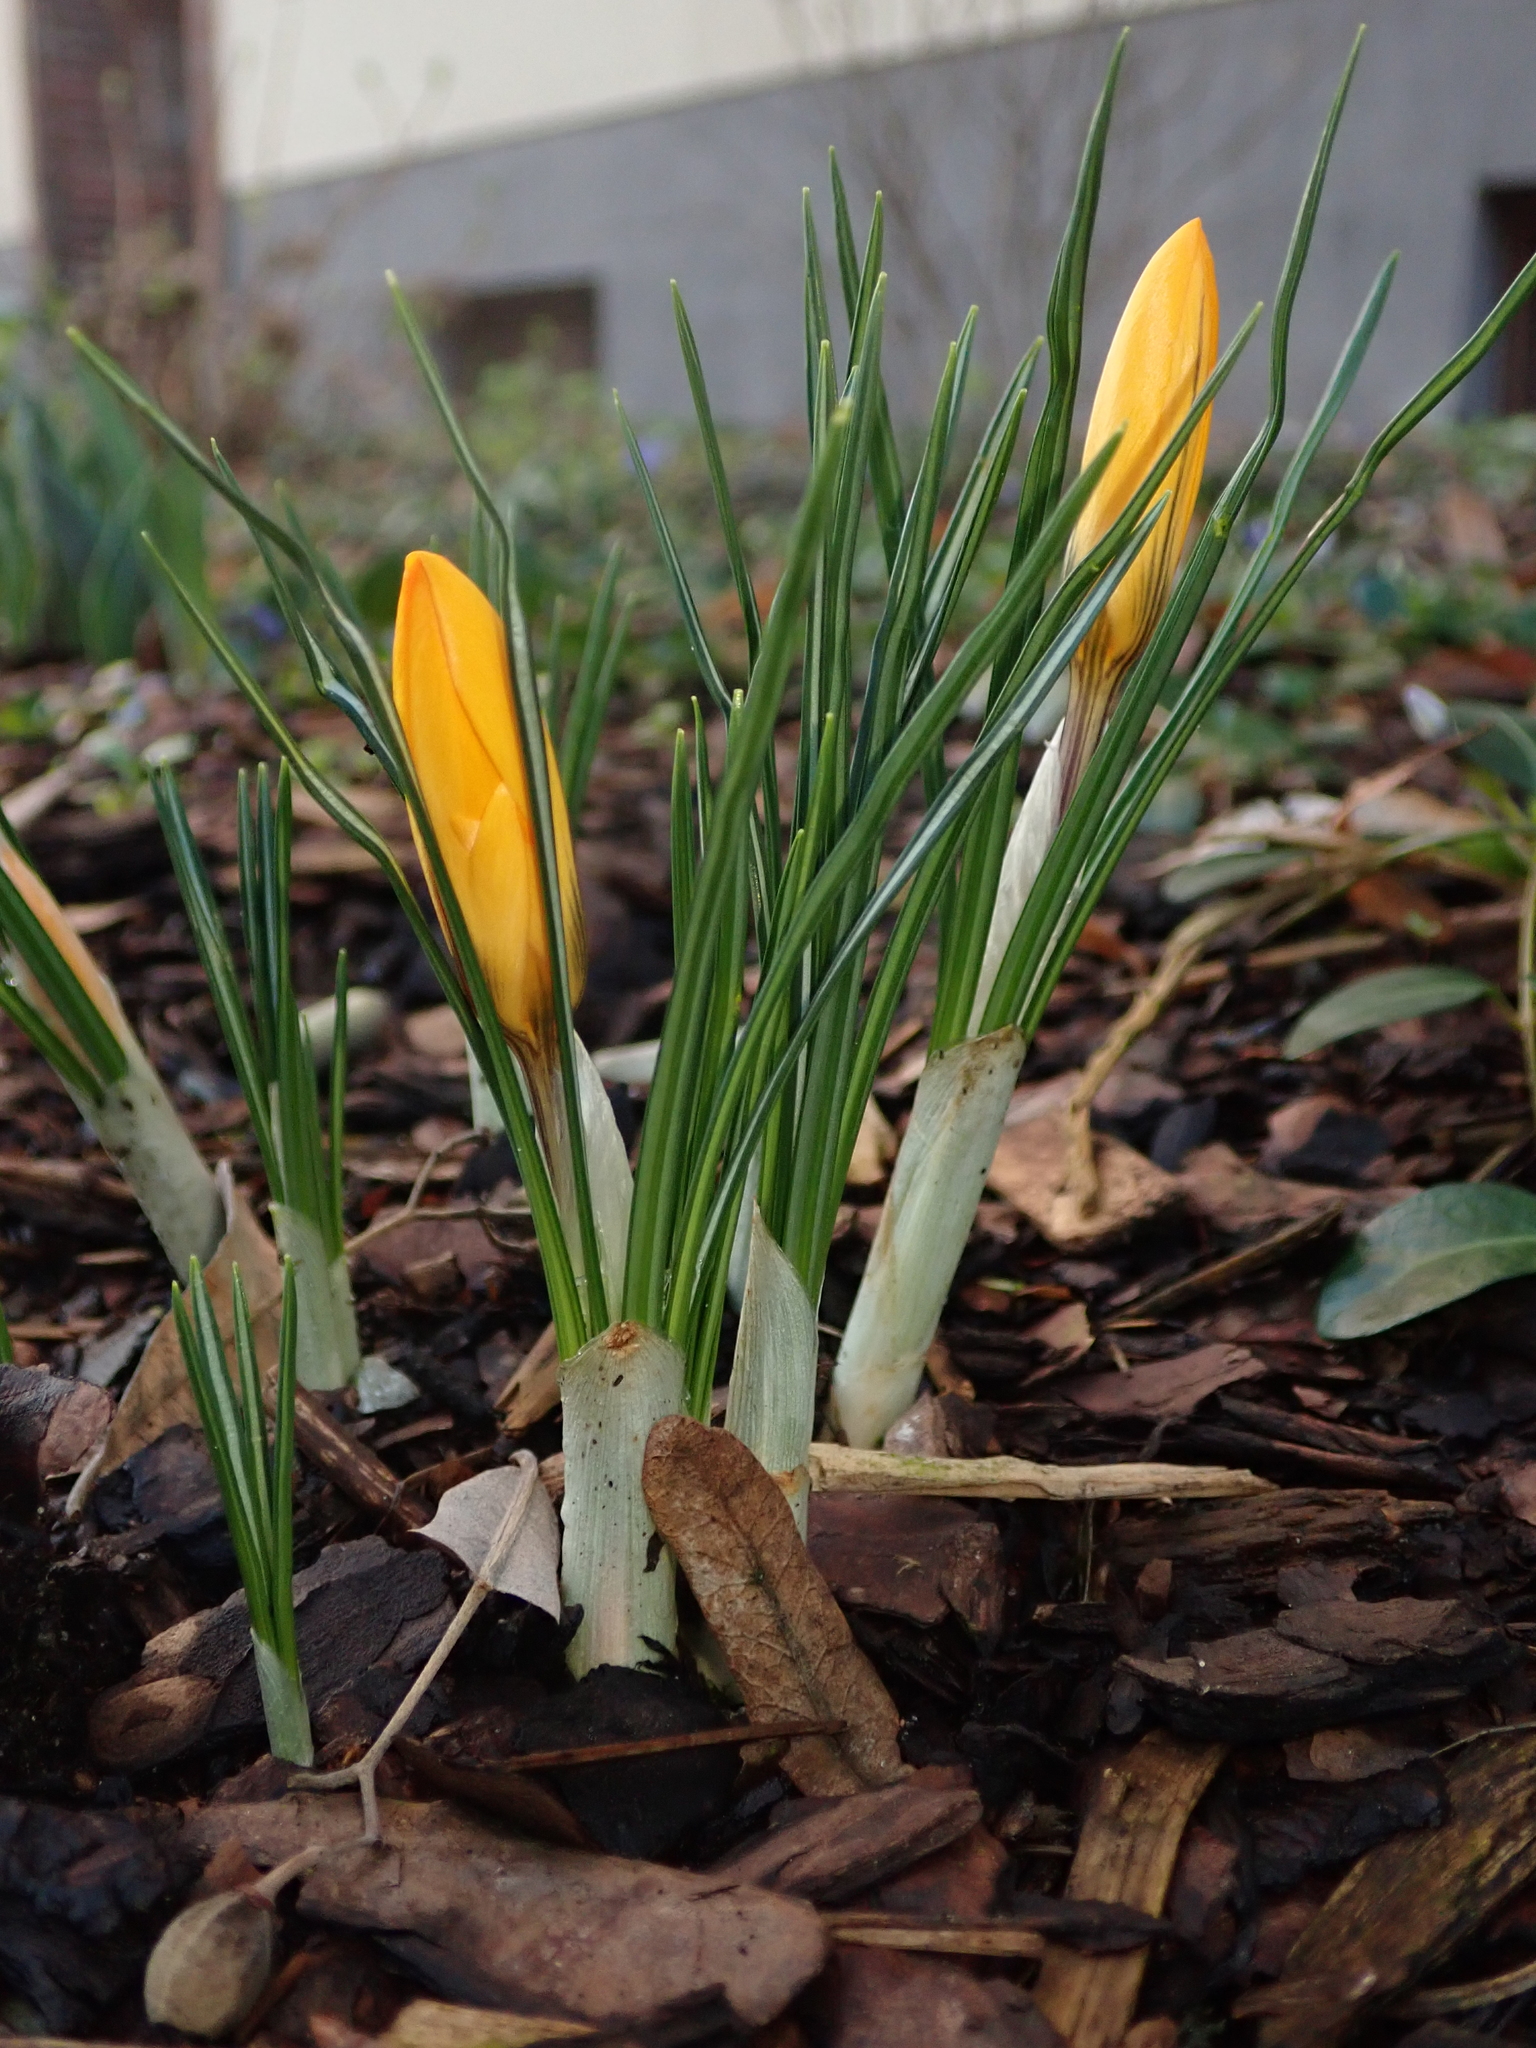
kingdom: Plantae
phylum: Tracheophyta
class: Liliopsida
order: Asparagales
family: Iridaceae
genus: Crocus
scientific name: Crocus luteus
